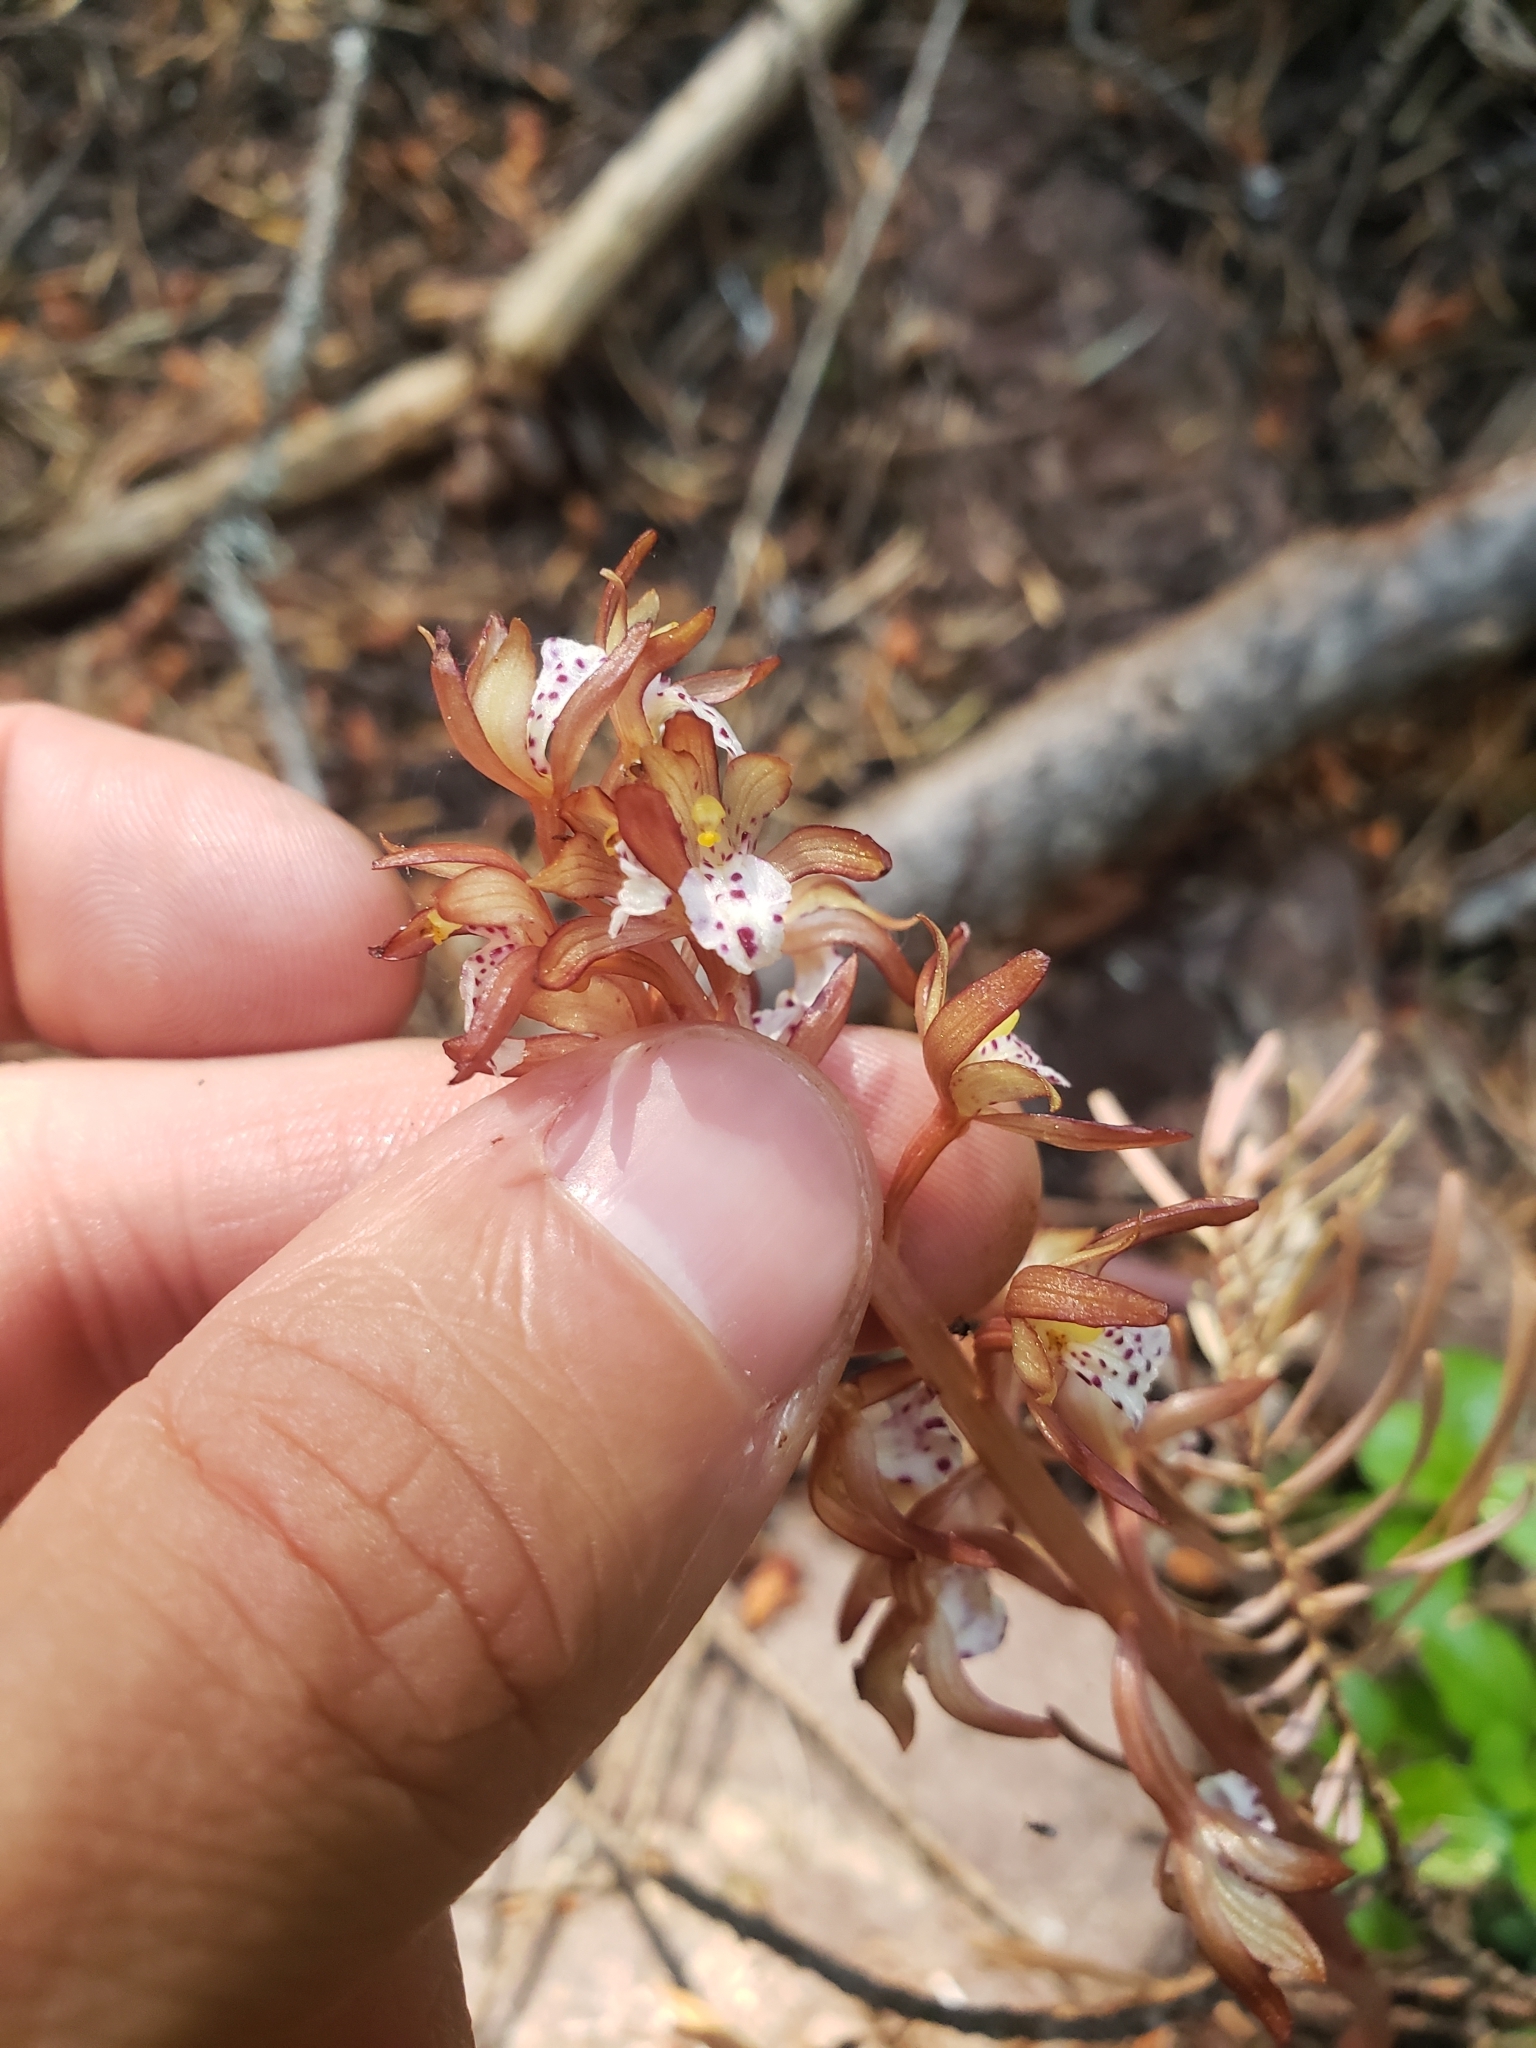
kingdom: Plantae
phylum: Tracheophyta
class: Liliopsida
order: Asparagales
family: Orchidaceae
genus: Corallorhiza
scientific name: Corallorhiza maculata
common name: Spotted coralroot
